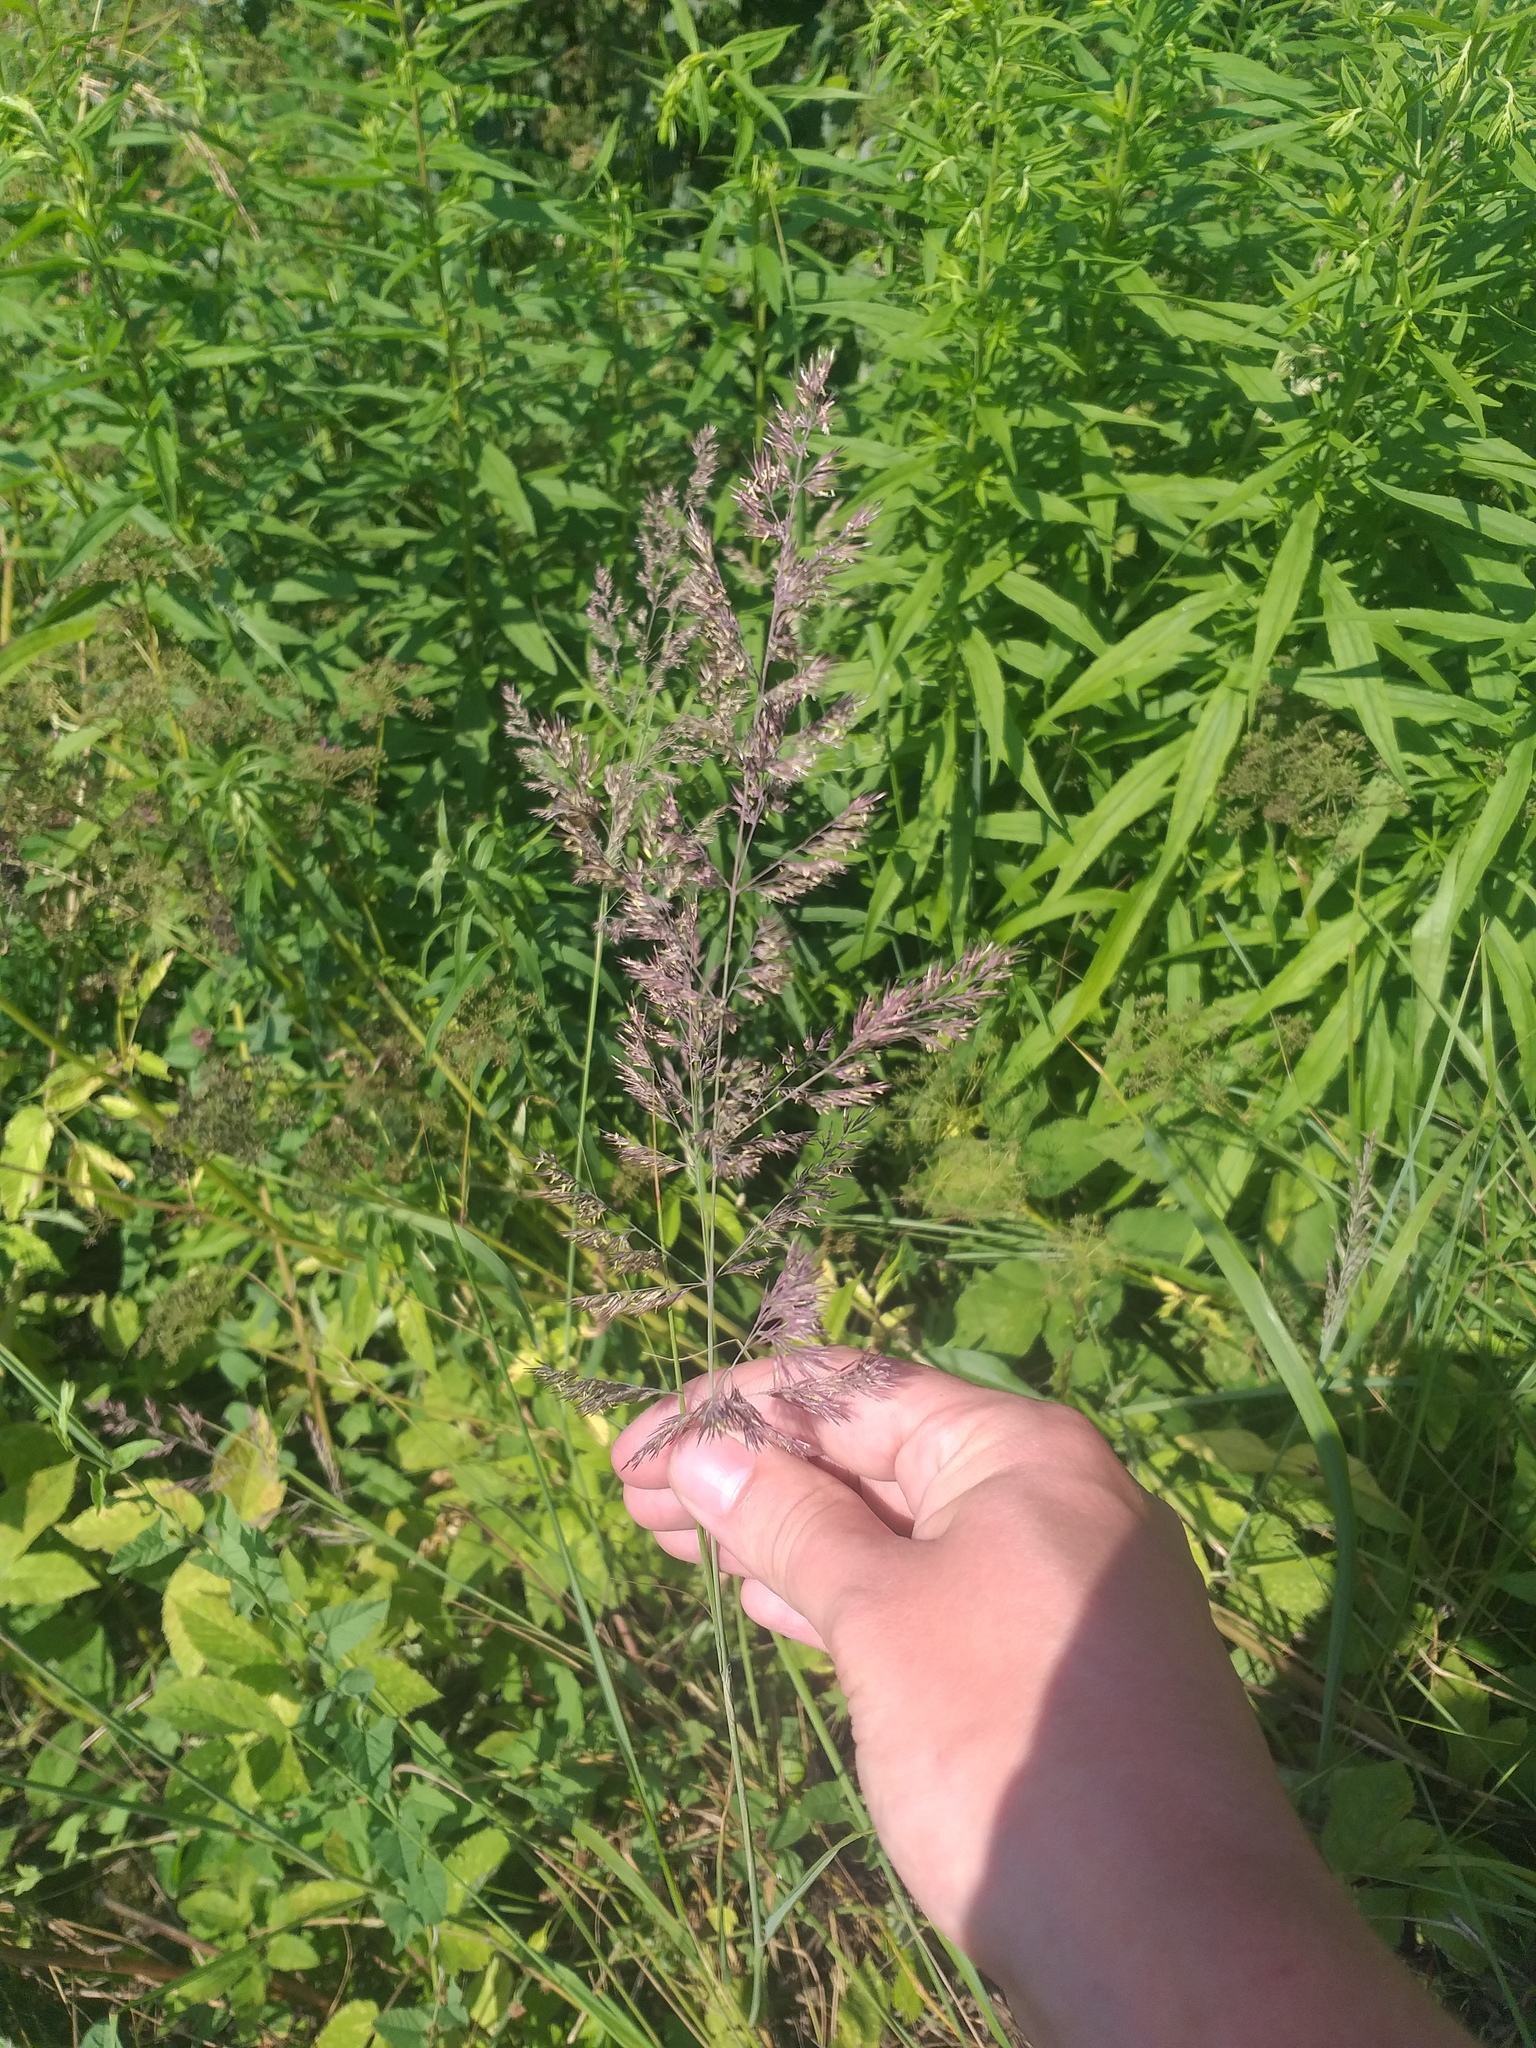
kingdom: Plantae
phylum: Tracheophyta
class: Liliopsida
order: Poales
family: Poaceae
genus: Calamagrostis
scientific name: Calamagrostis epigejos
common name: Wood small-reed
